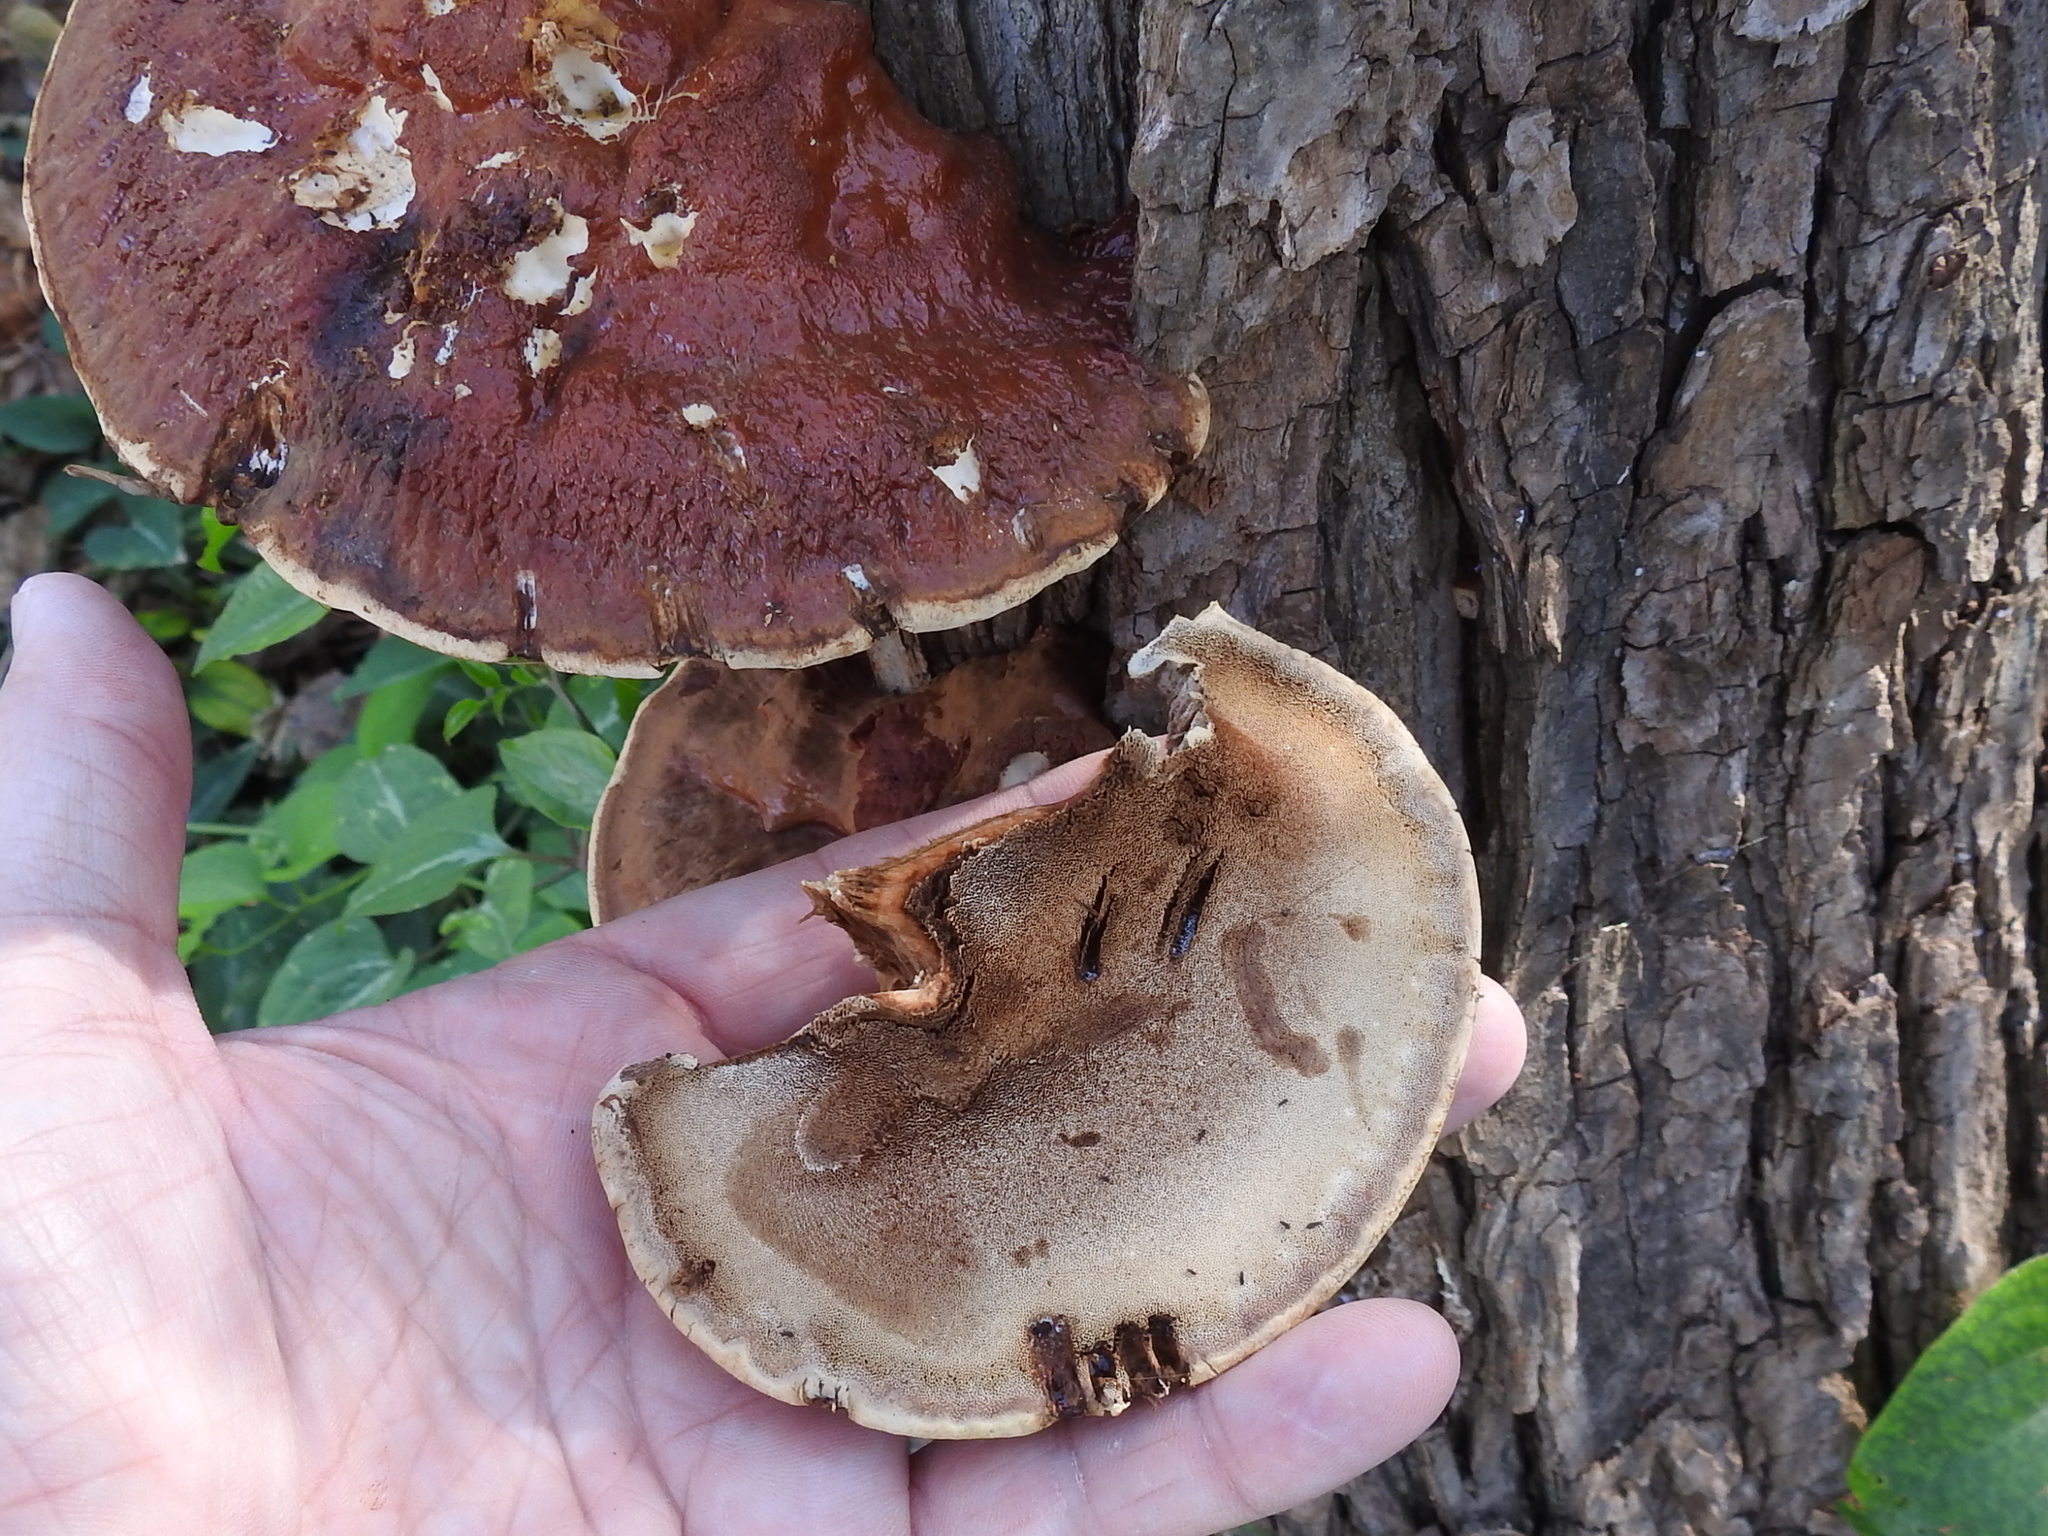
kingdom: Fungi
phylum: Basidiomycota
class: Agaricomycetes
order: Polyporales
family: Polyporaceae
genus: Ganoderma
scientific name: Ganoderma resinaceum
